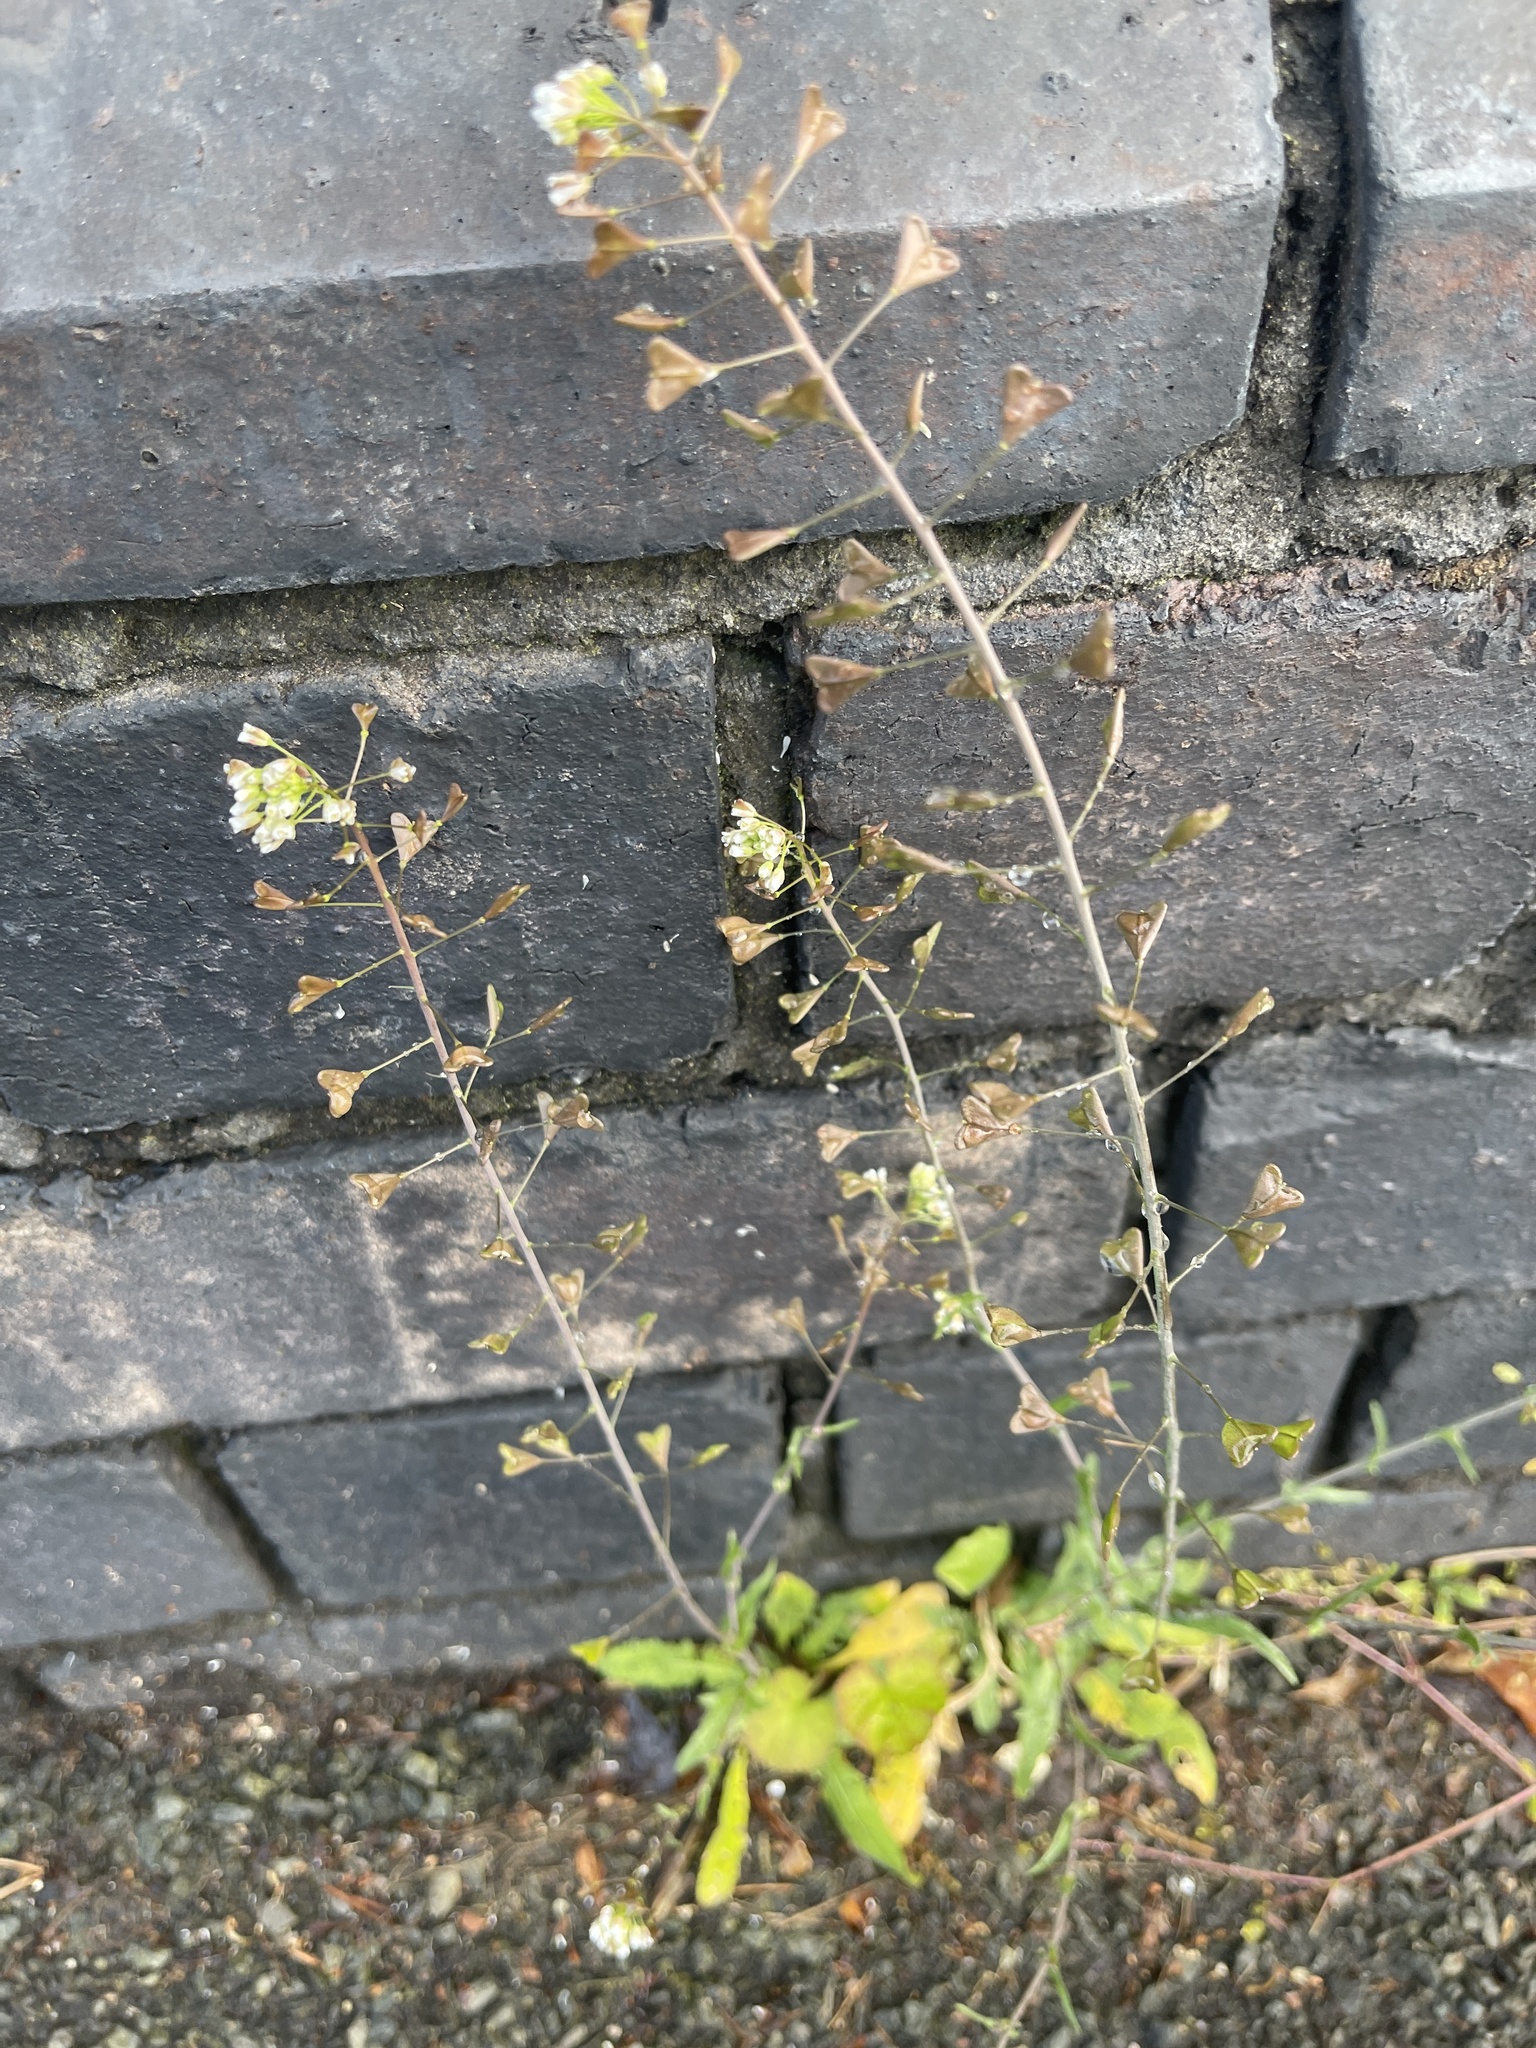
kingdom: Plantae
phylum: Tracheophyta
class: Magnoliopsida
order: Brassicales
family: Brassicaceae
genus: Capsella
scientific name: Capsella bursa-pastoris
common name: Shepherd's purse
